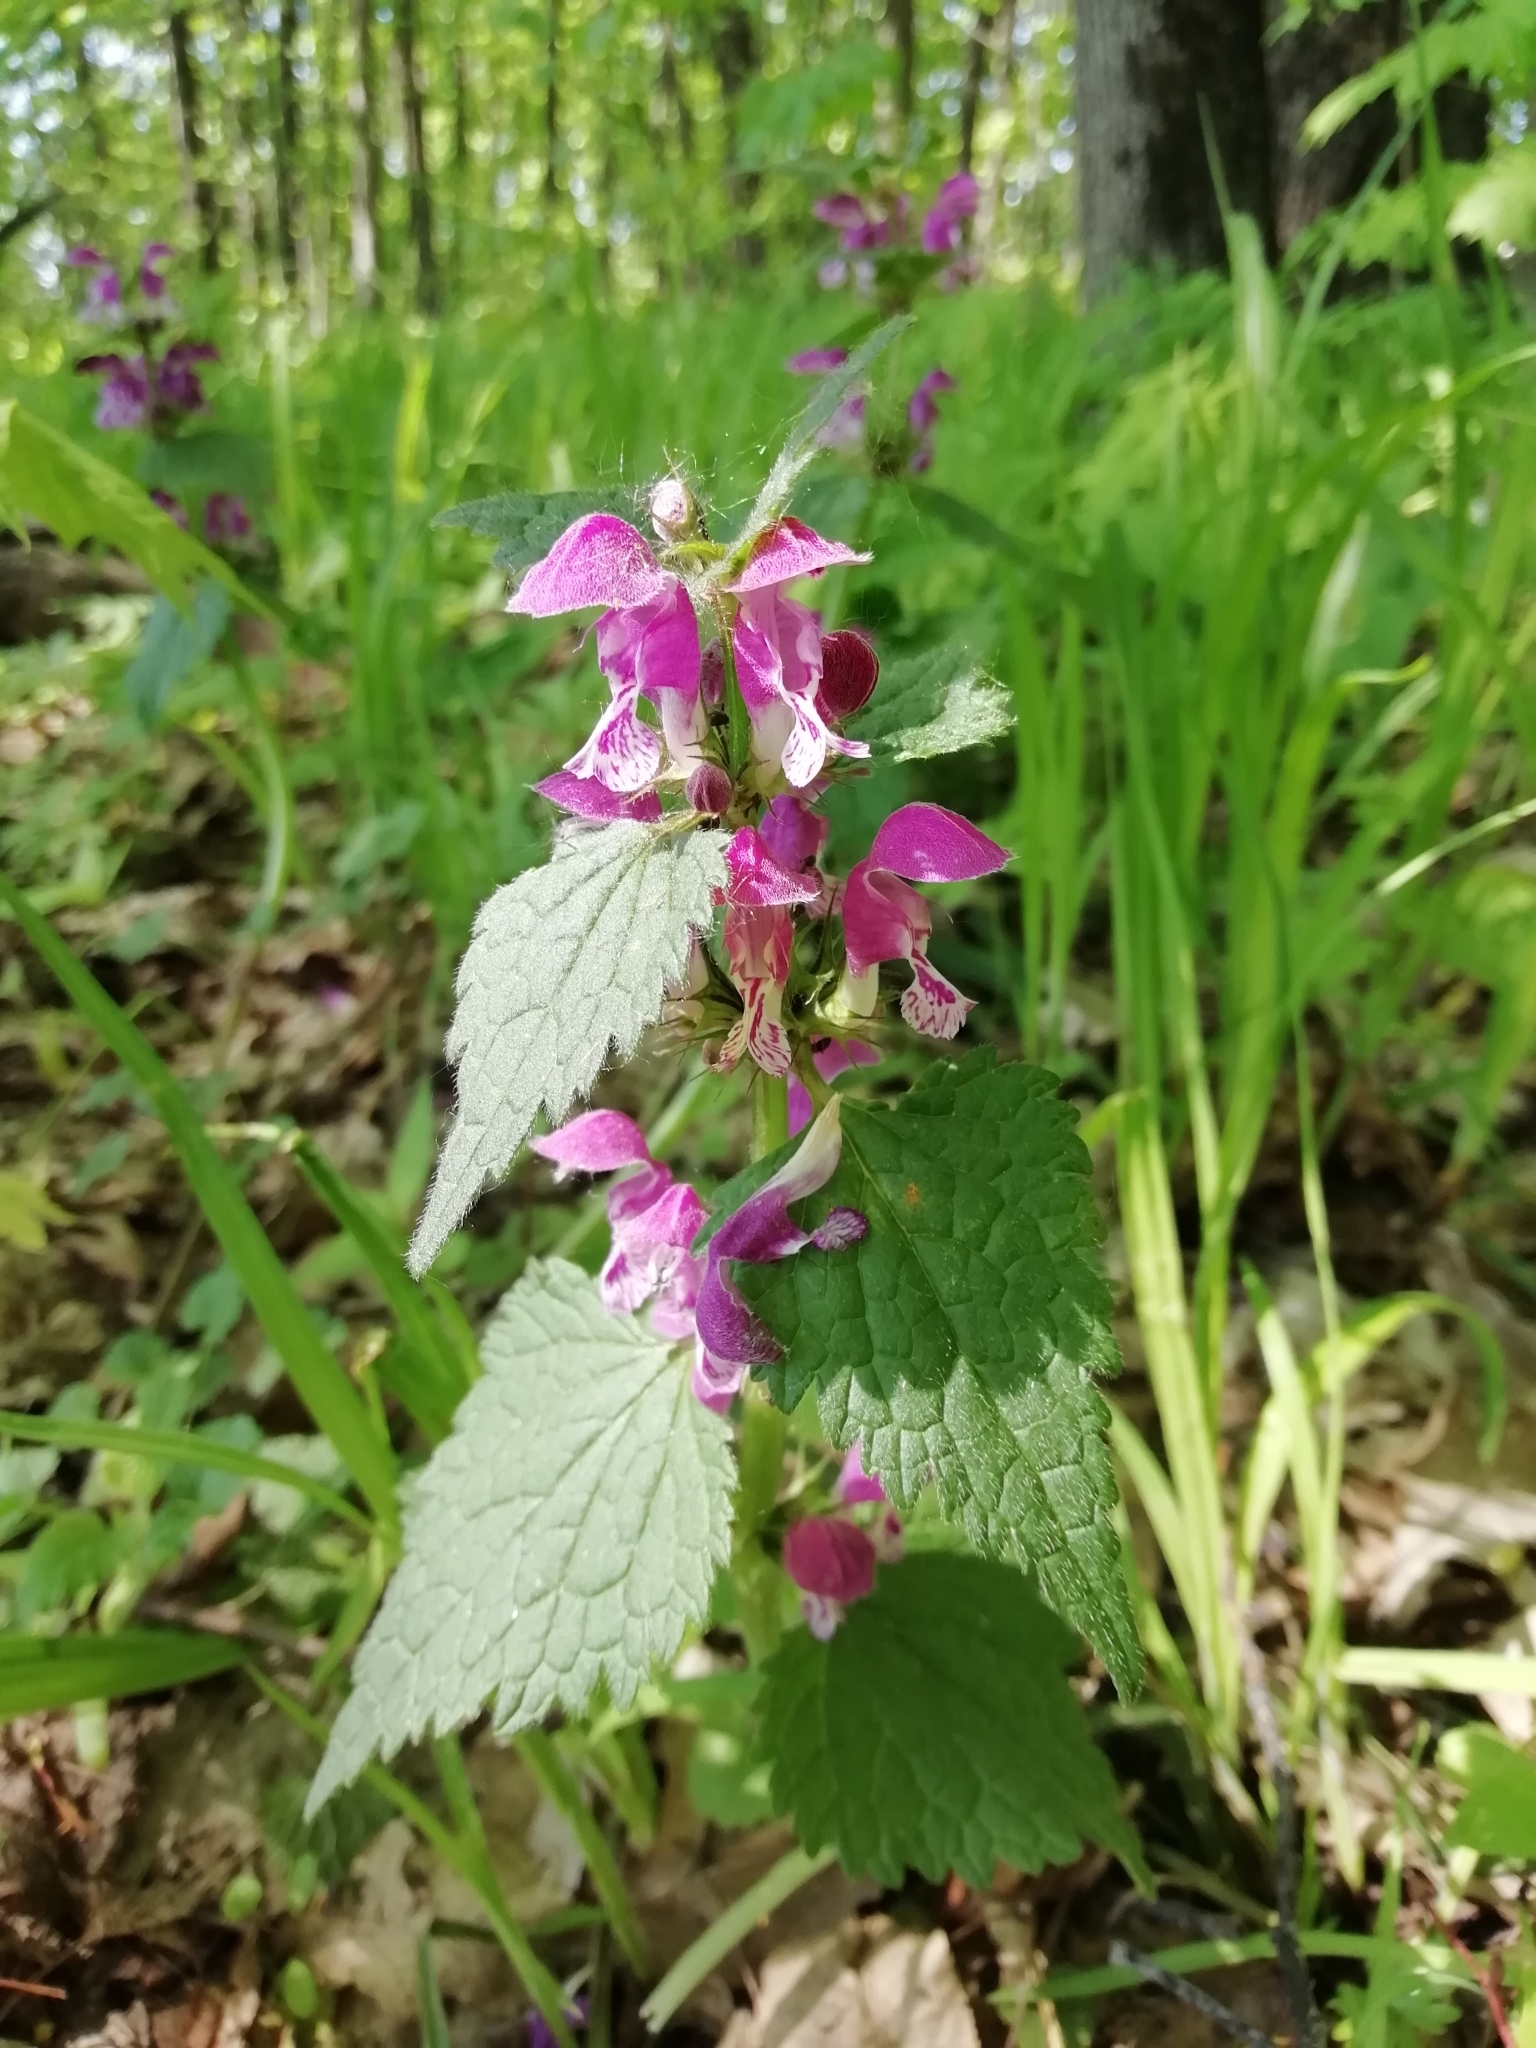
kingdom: Plantae
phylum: Tracheophyta
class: Magnoliopsida
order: Lamiales
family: Lamiaceae
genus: Lamium
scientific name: Lamium maculatum
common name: Spotted dead-nettle
